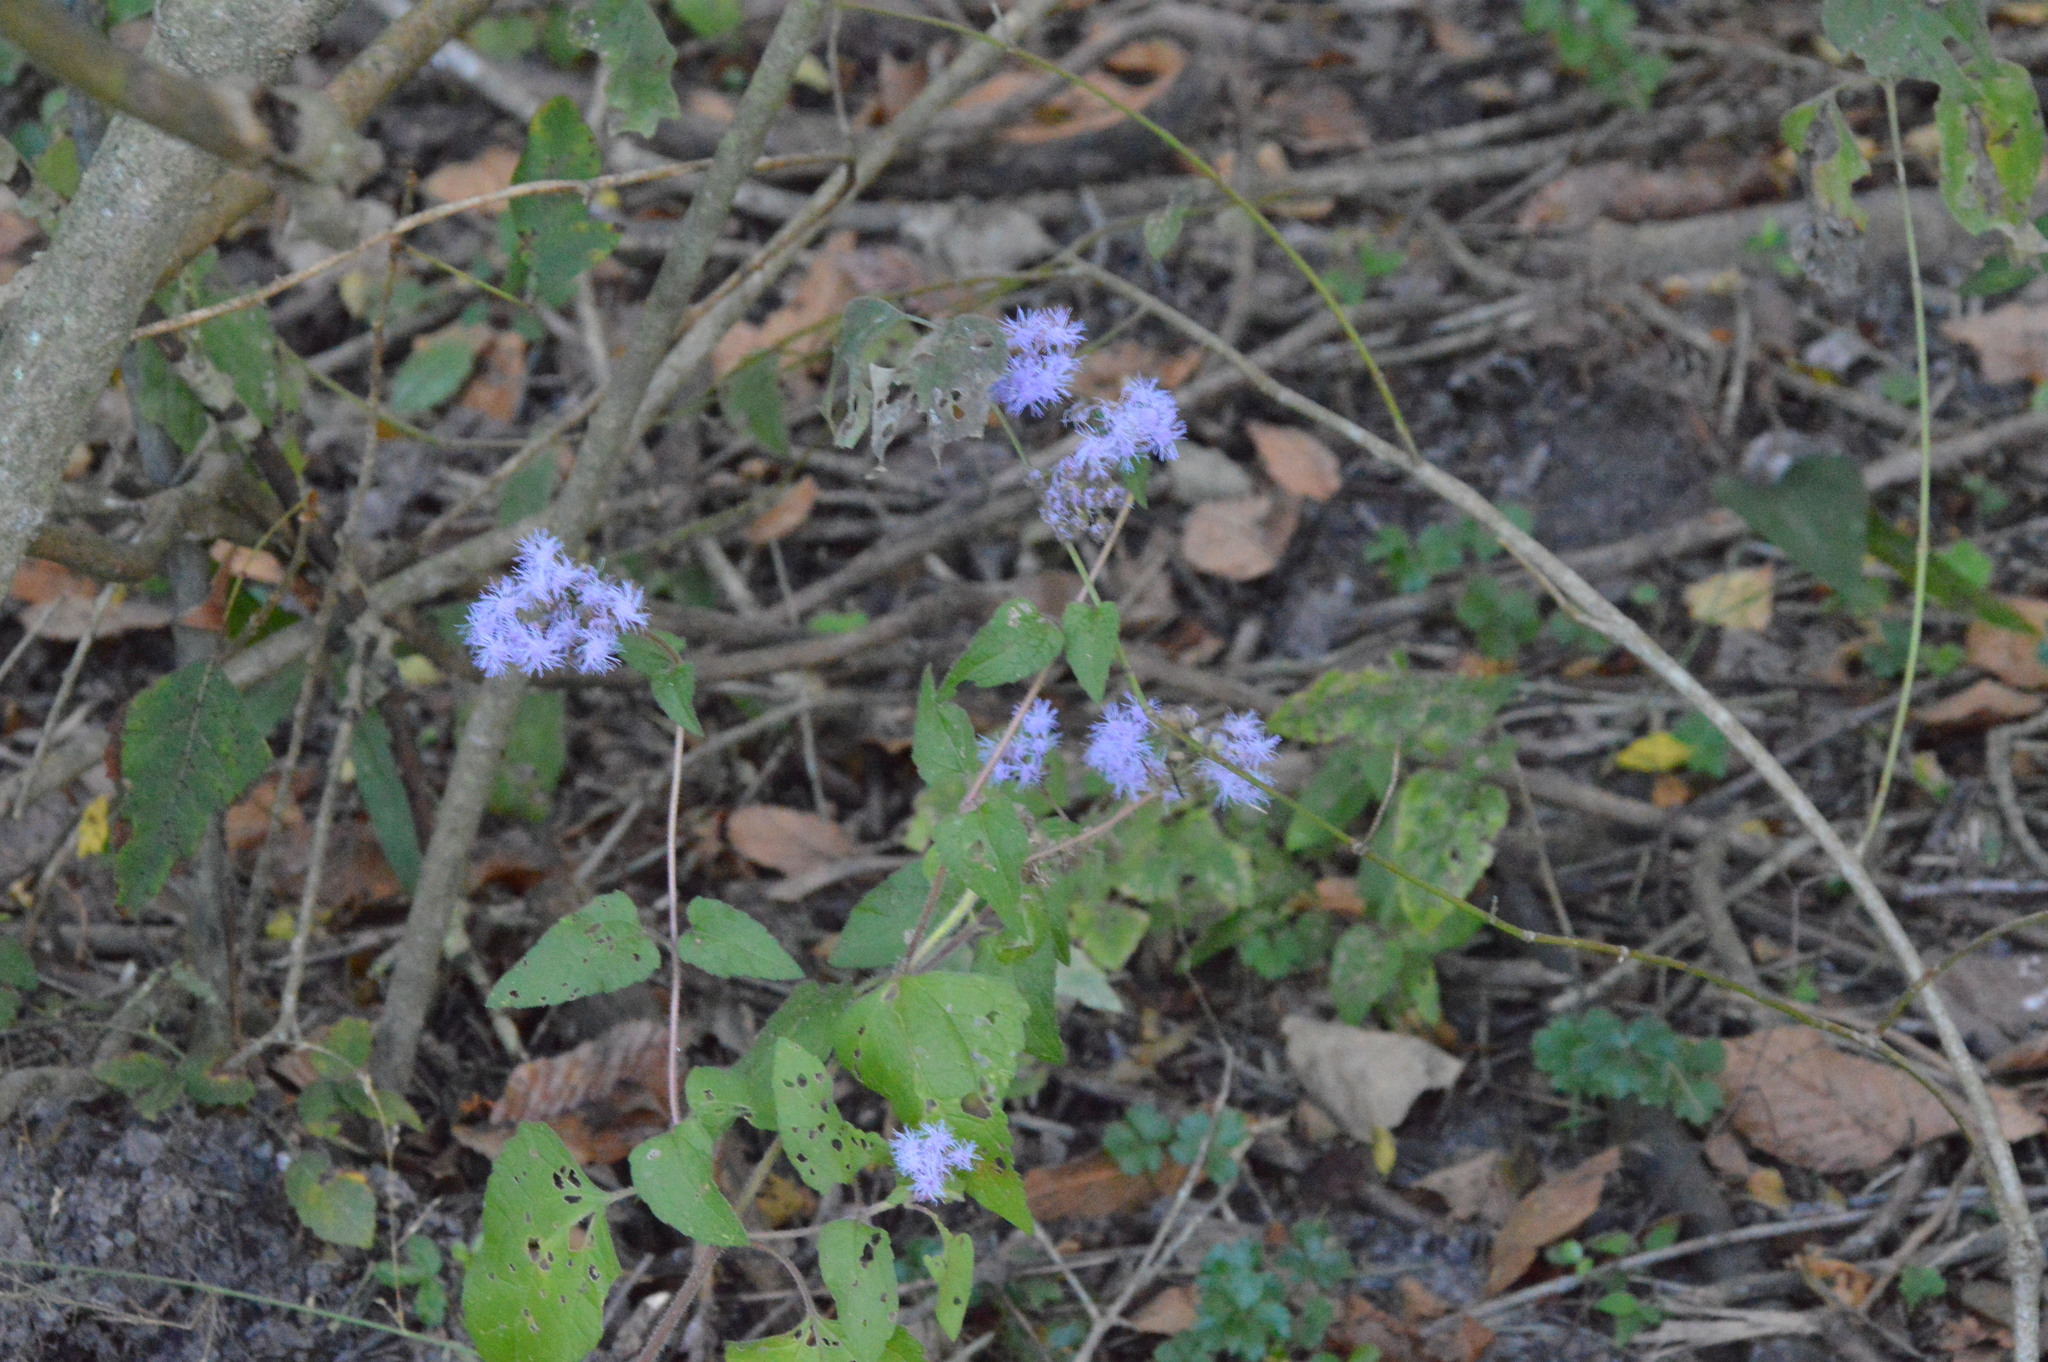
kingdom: Plantae
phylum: Tracheophyta
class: Magnoliopsida
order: Asterales
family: Asteraceae
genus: Conoclinium
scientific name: Conoclinium coelestinum
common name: Blue mistflower
